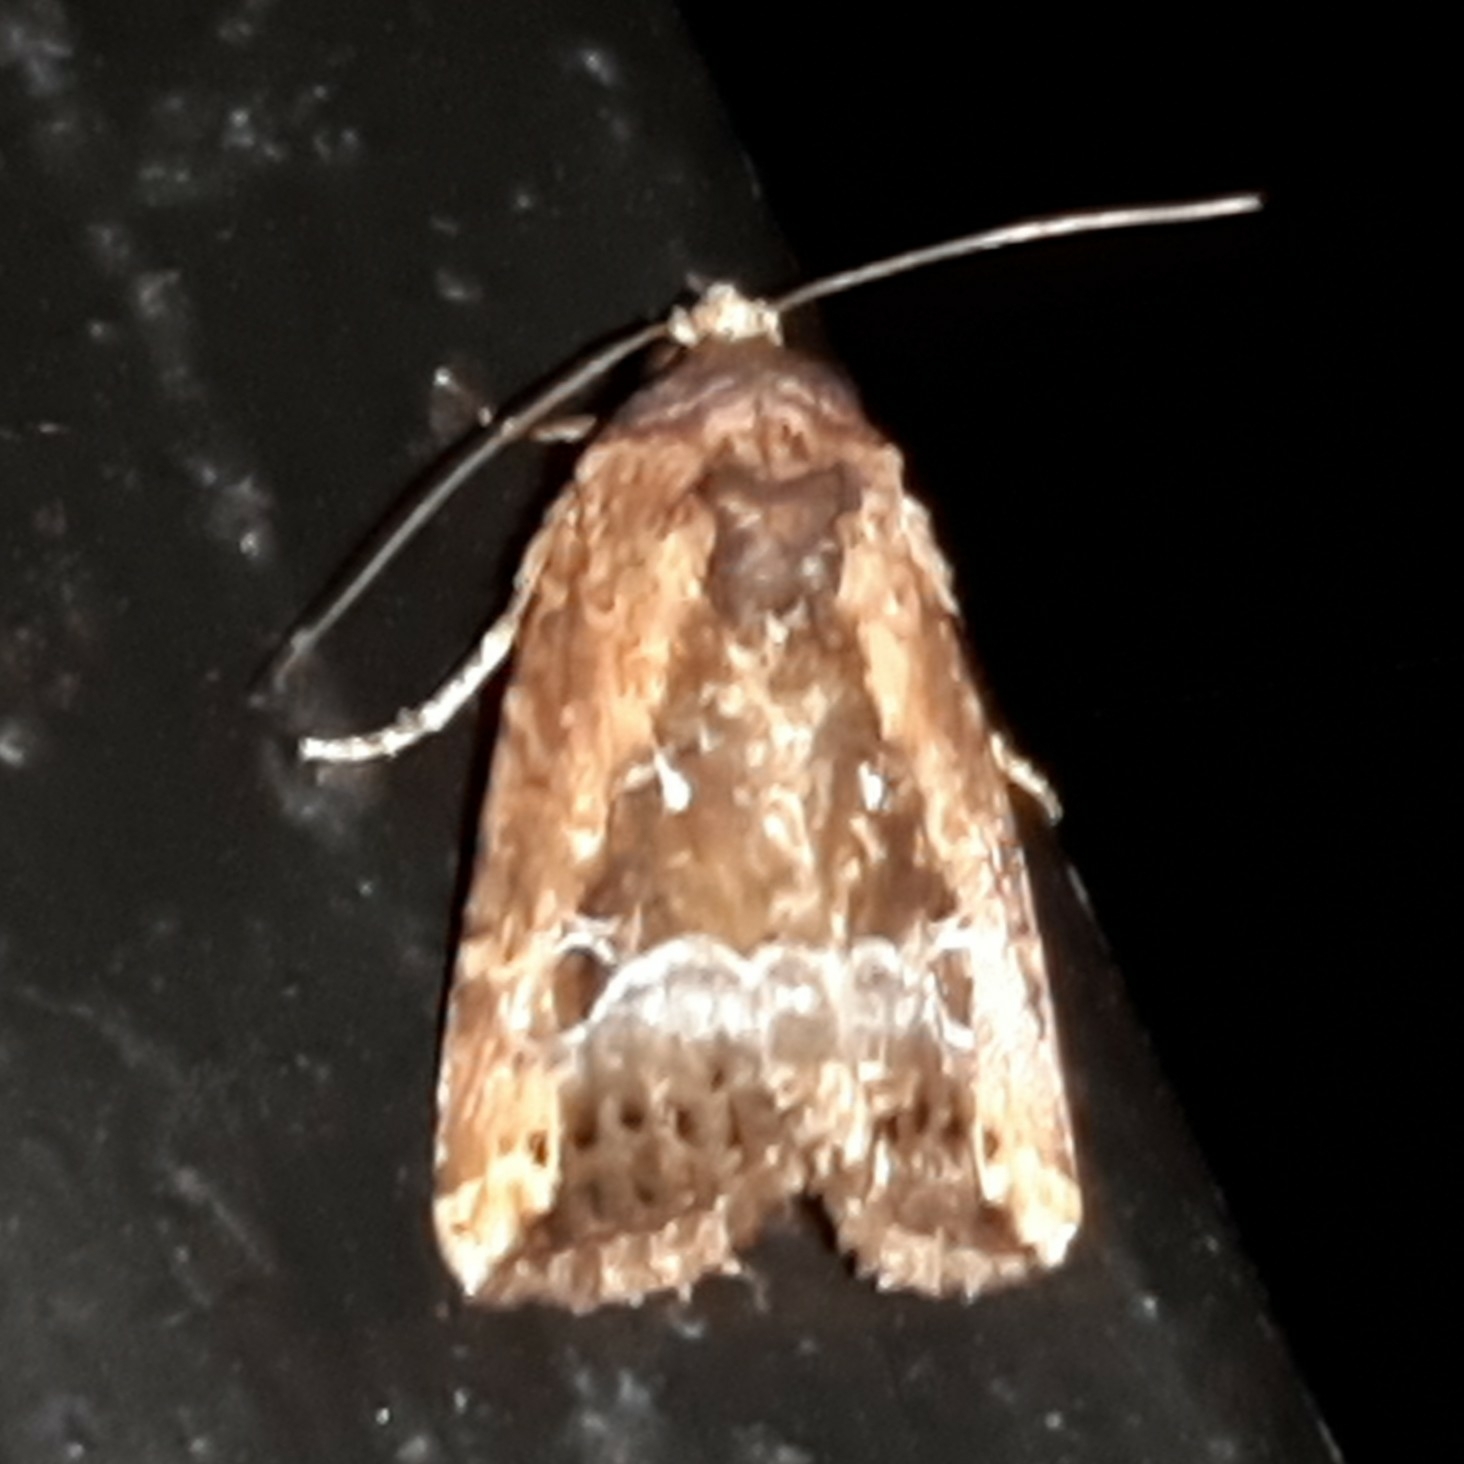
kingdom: Animalia
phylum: Arthropoda
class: Insecta
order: Lepidoptera
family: Noctuidae
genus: Elaphria
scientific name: Elaphria subobliqua
